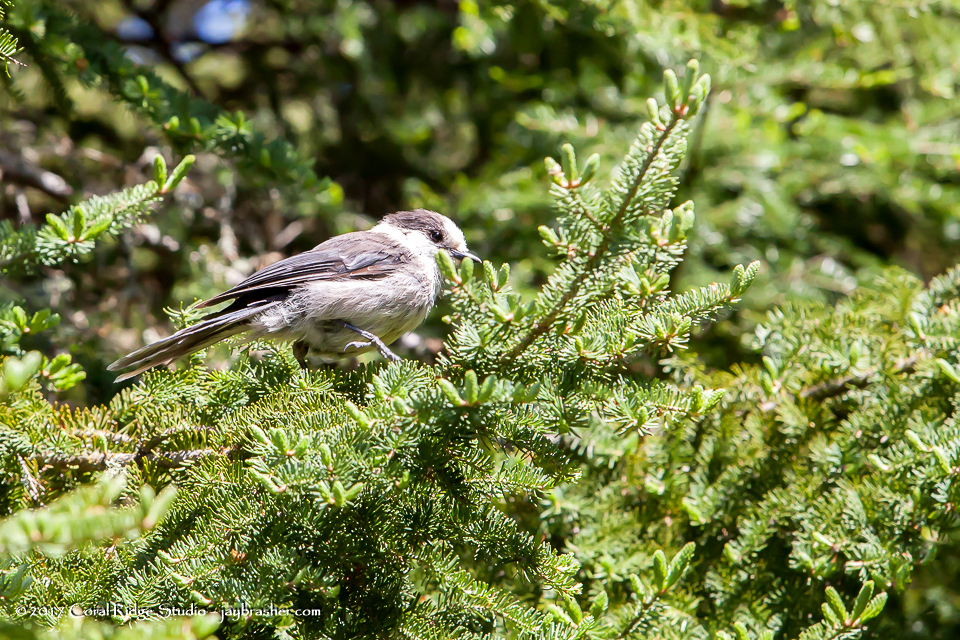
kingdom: Animalia
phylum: Chordata
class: Aves
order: Passeriformes
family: Corvidae
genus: Perisoreus
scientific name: Perisoreus canadensis
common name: Gray jay
